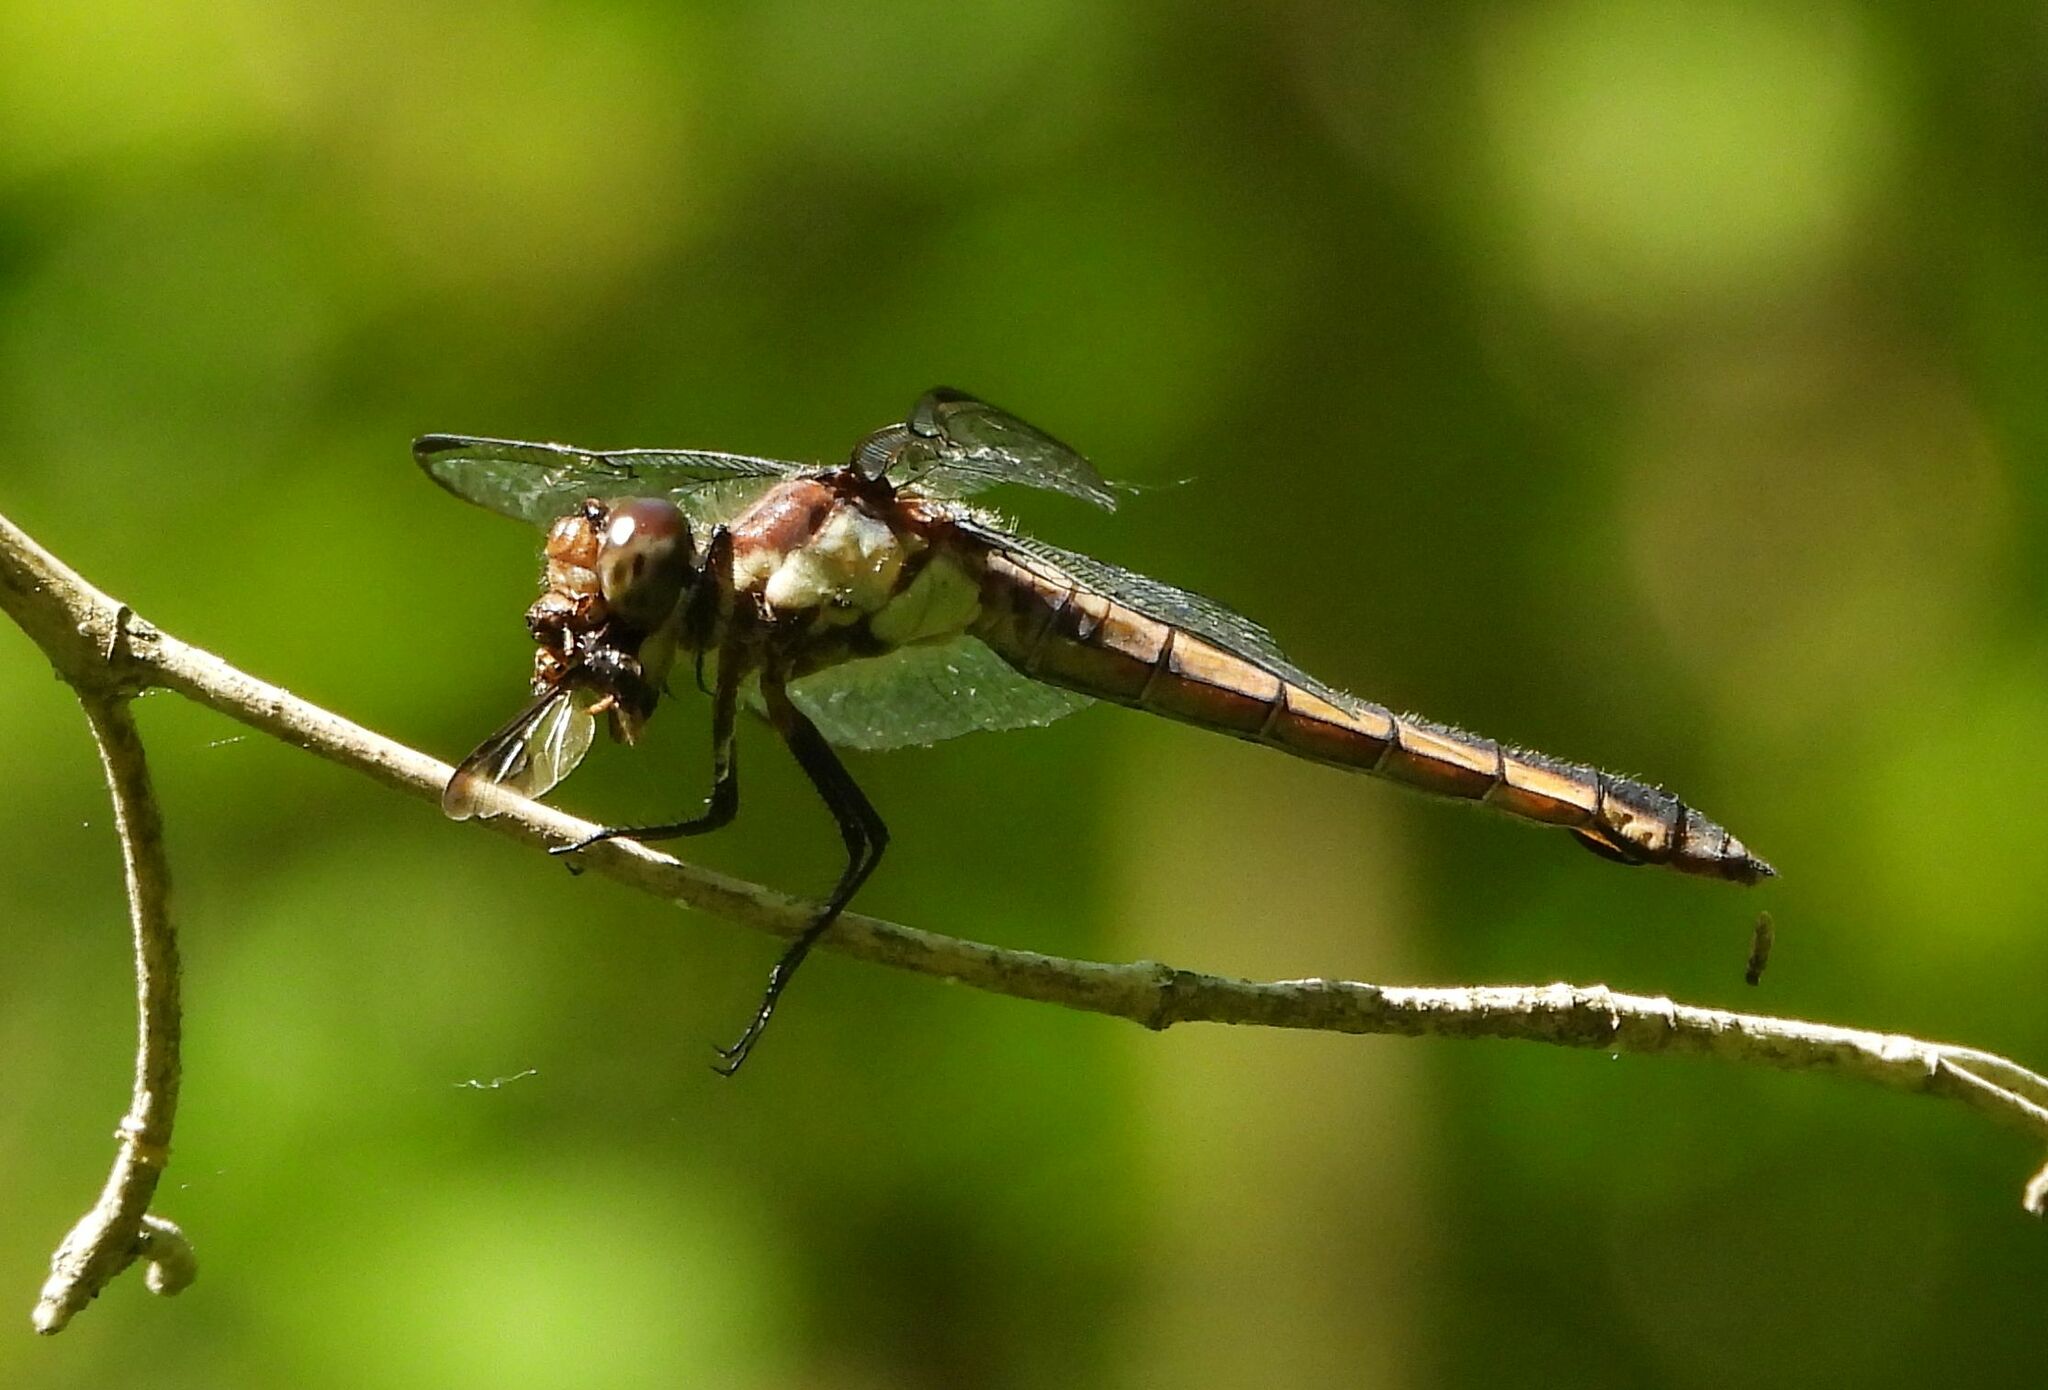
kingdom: Animalia
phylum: Arthropoda
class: Insecta
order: Odonata
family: Libellulidae
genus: Libellula
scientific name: Libellula incesta
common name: Slaty skimmer
